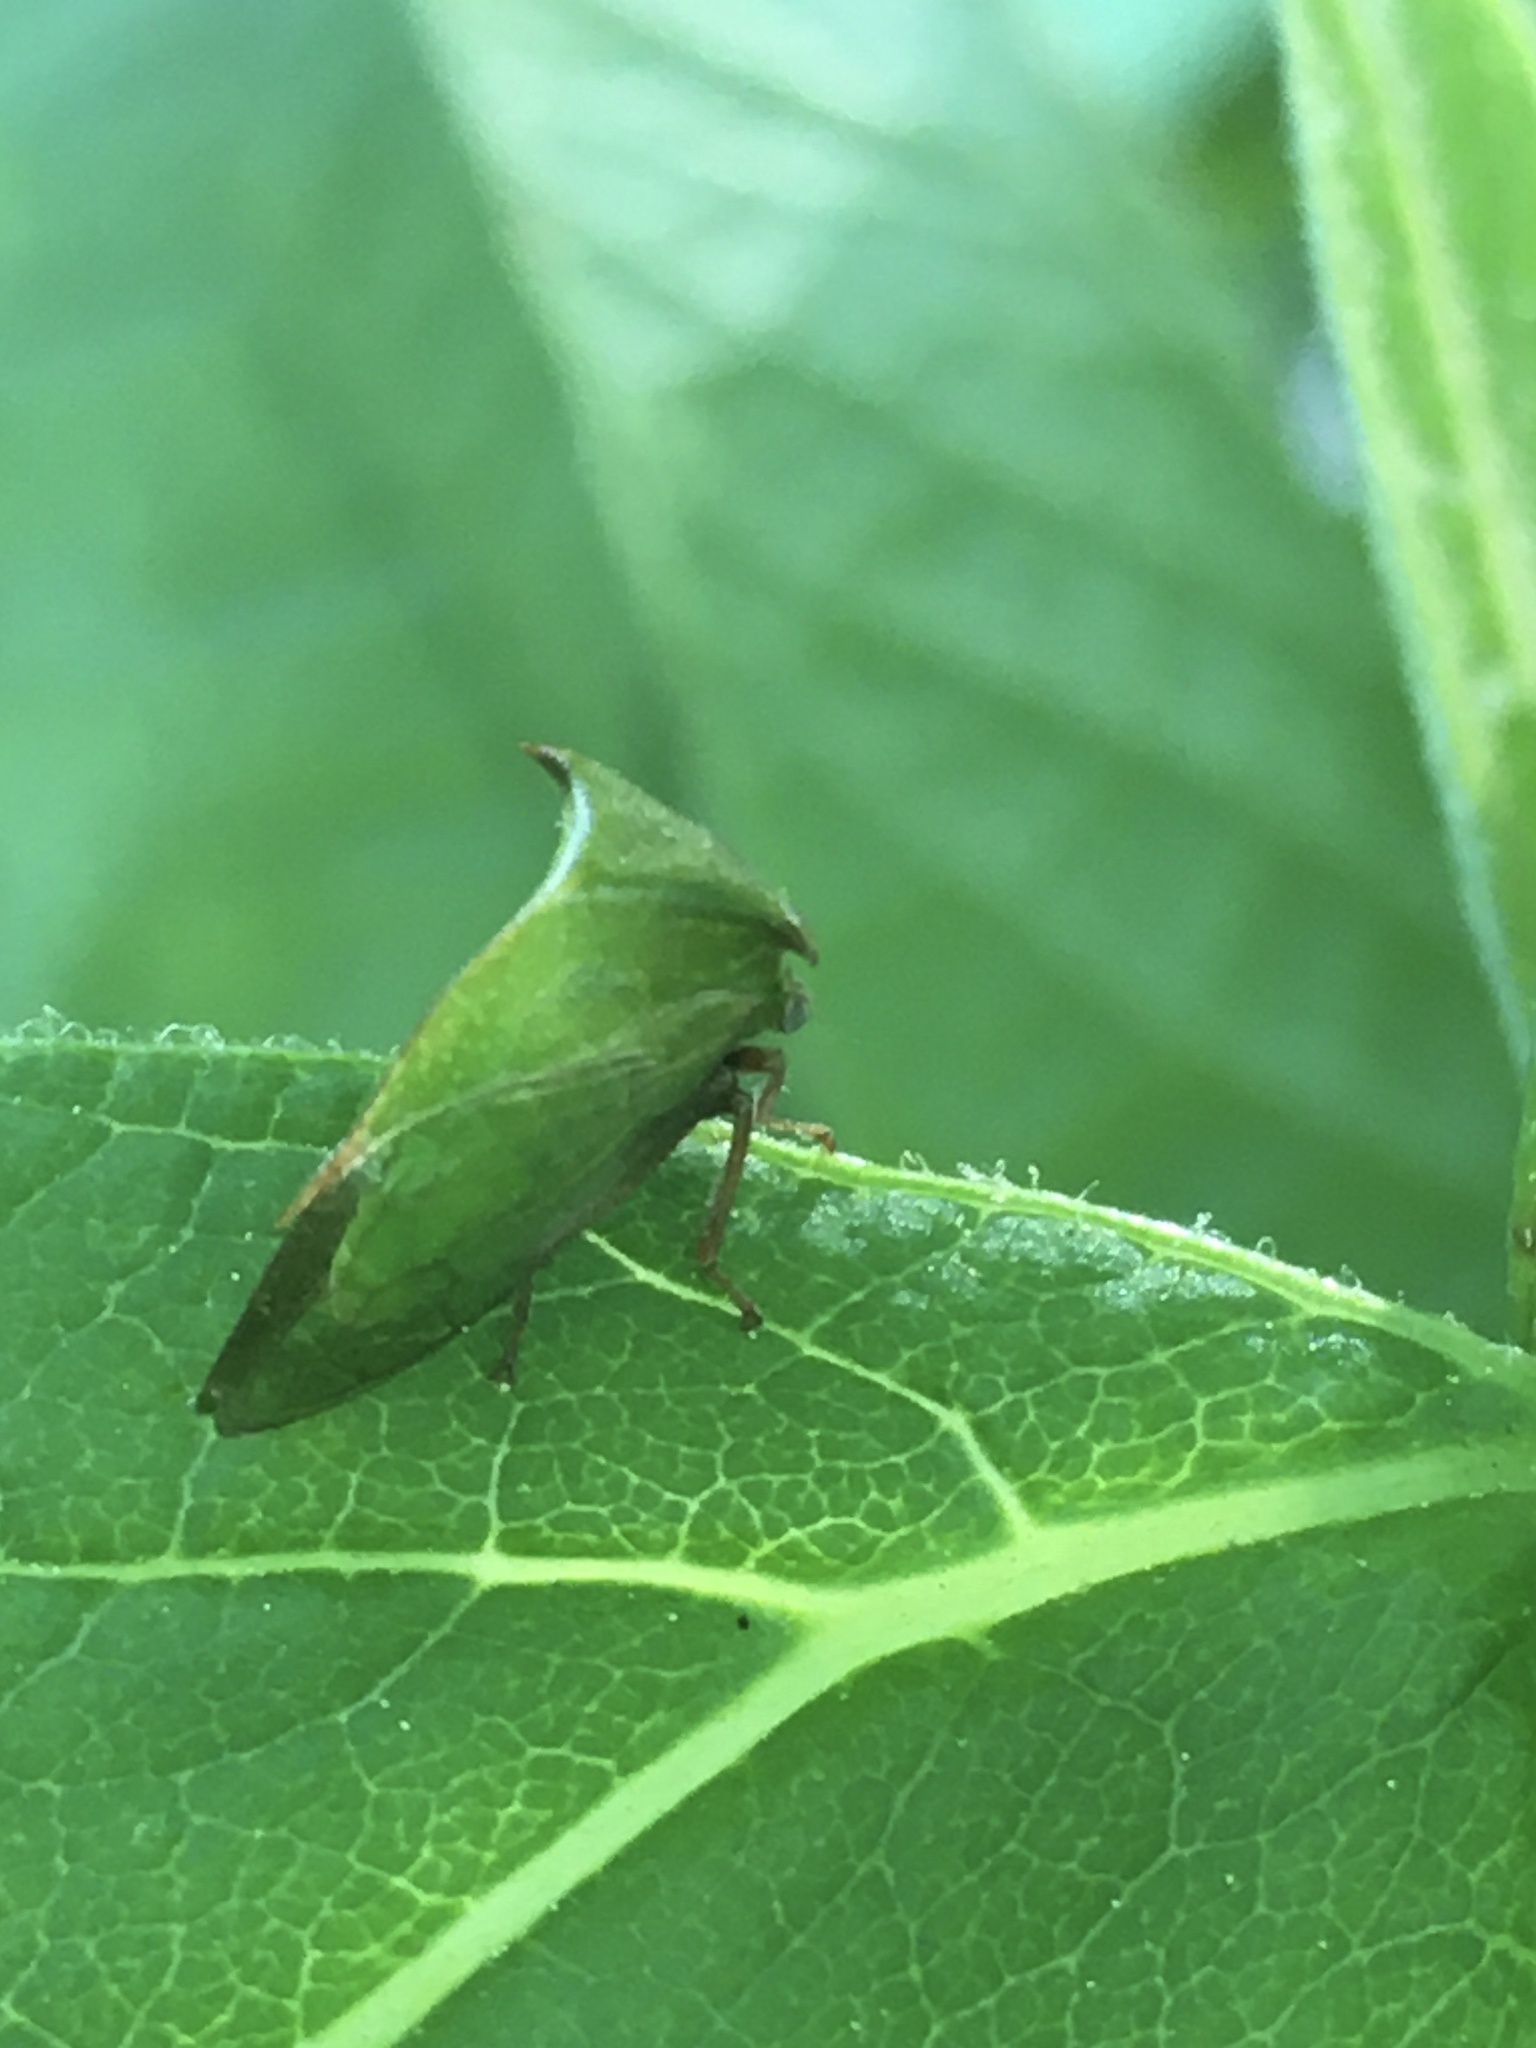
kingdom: Animalia
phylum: Arthropoda
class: Insecta
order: Hemiptera
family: Membracidae
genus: Stictocephala
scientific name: Stictocephala brevitylus
